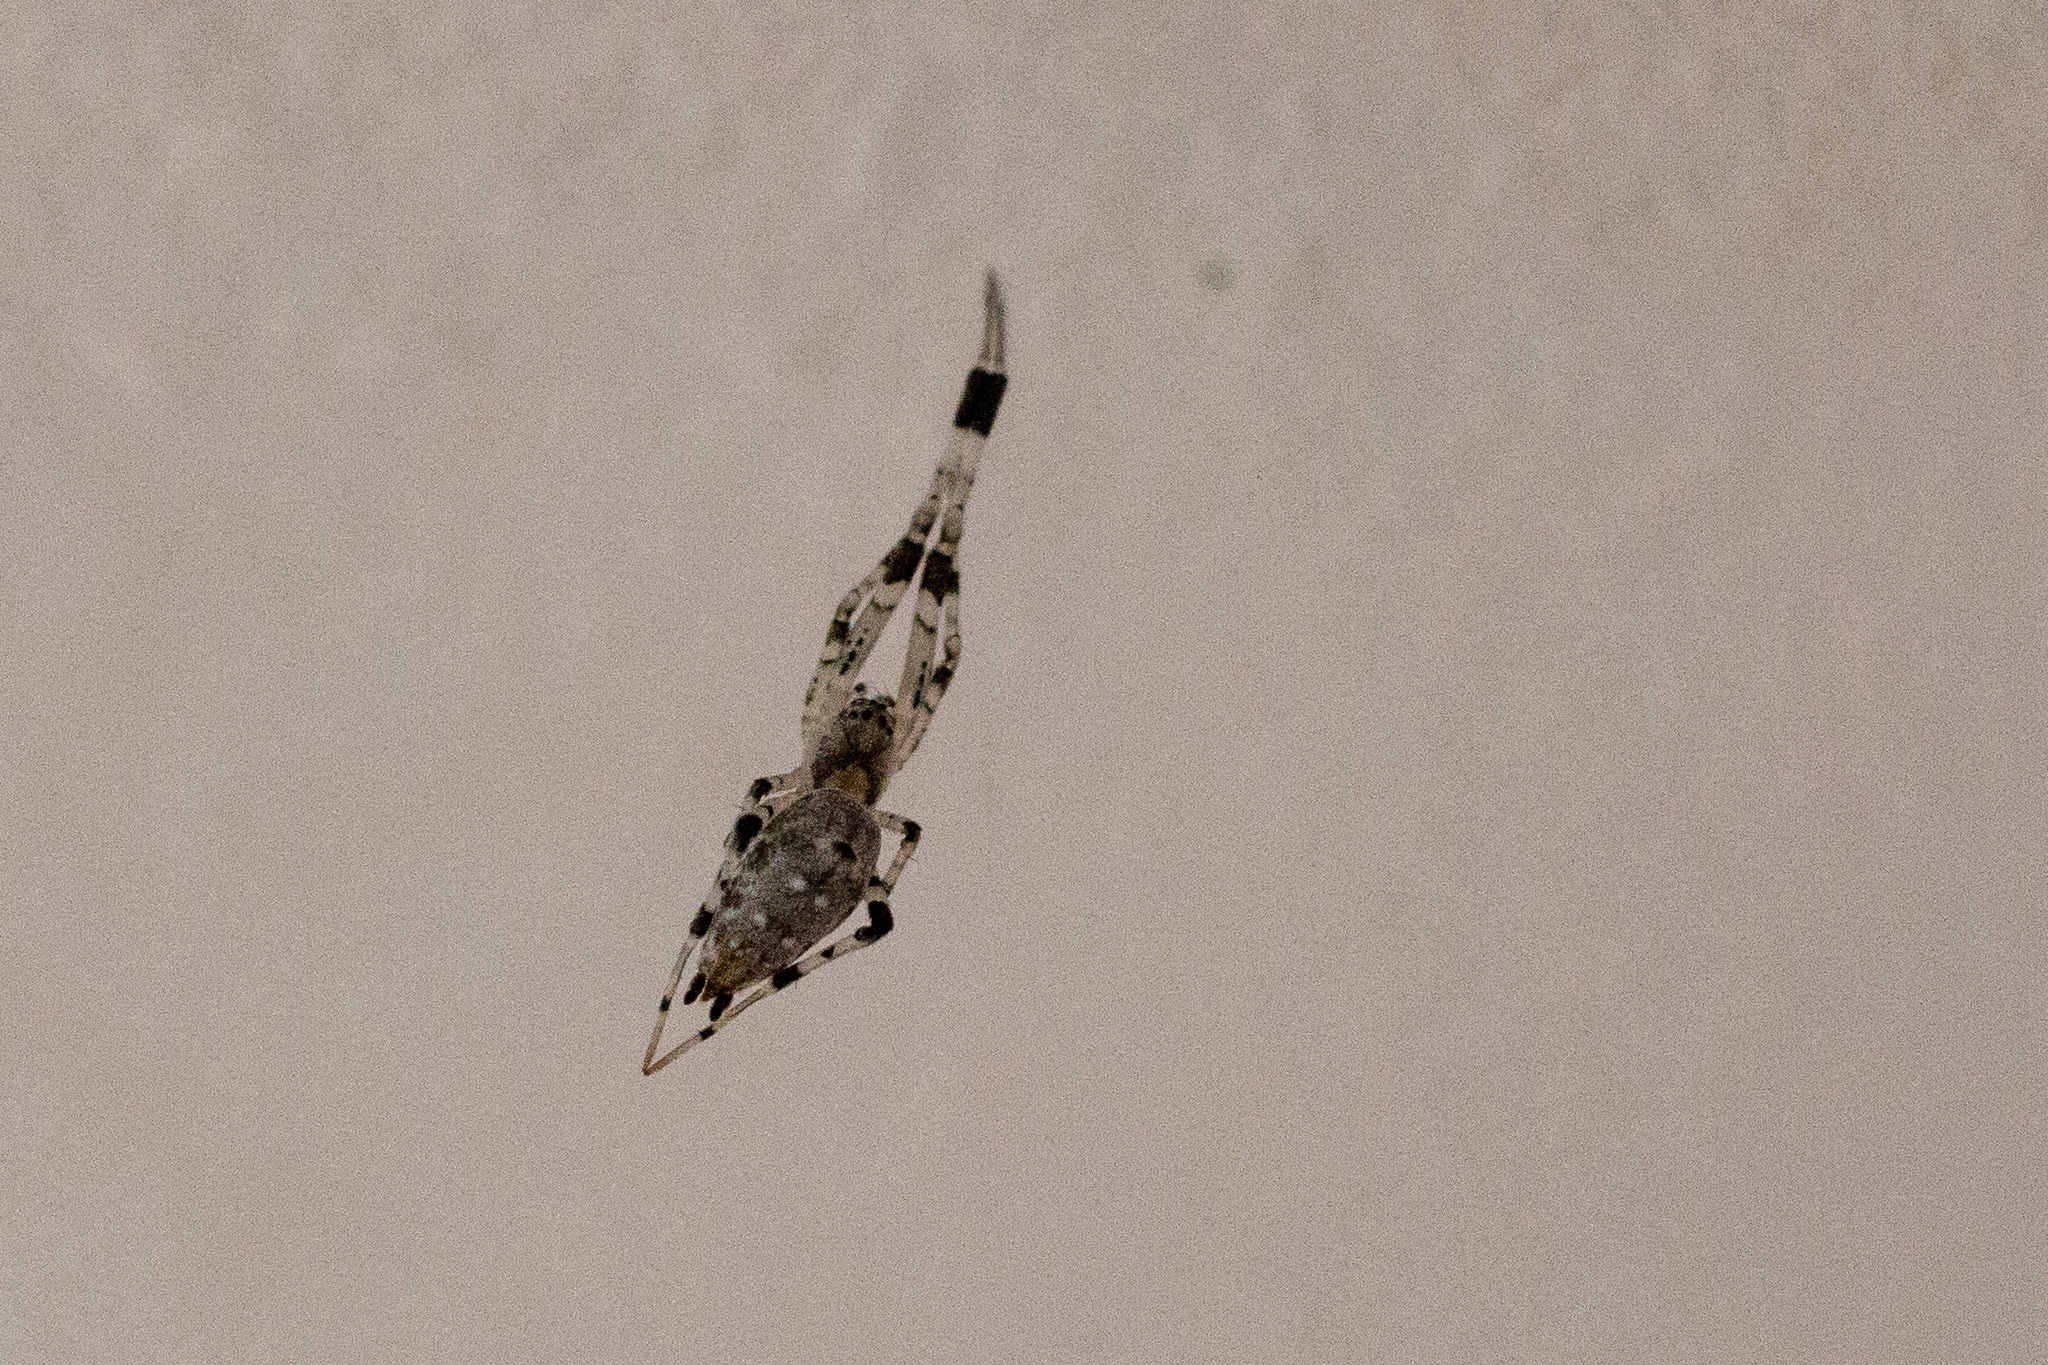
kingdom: Animalia
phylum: Arthropoda
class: Arachnida
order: Araneae
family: Uloboridae
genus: Zosis
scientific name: Zosis geniculata
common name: Hackled orb weavers
